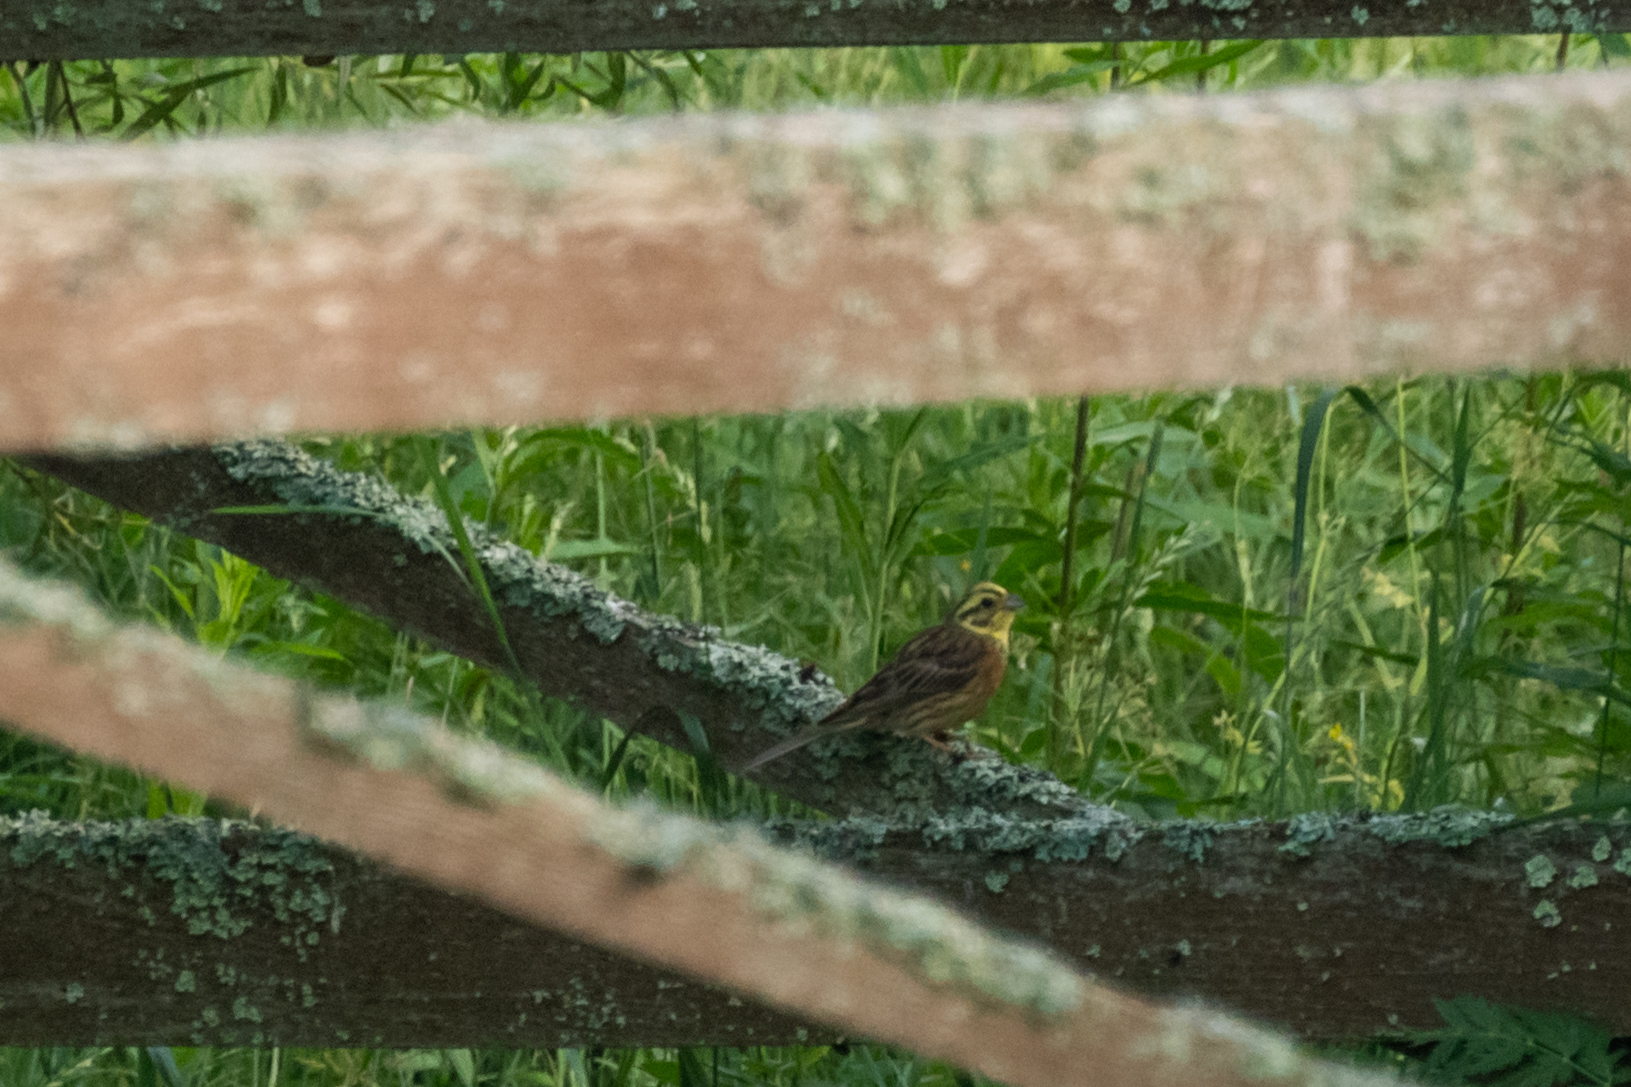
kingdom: Animalia
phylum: Chordata
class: Aves
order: Passeriformes
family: Emberizidae
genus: Emberiza
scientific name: Emberiza citrinella
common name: Yellowhammer
